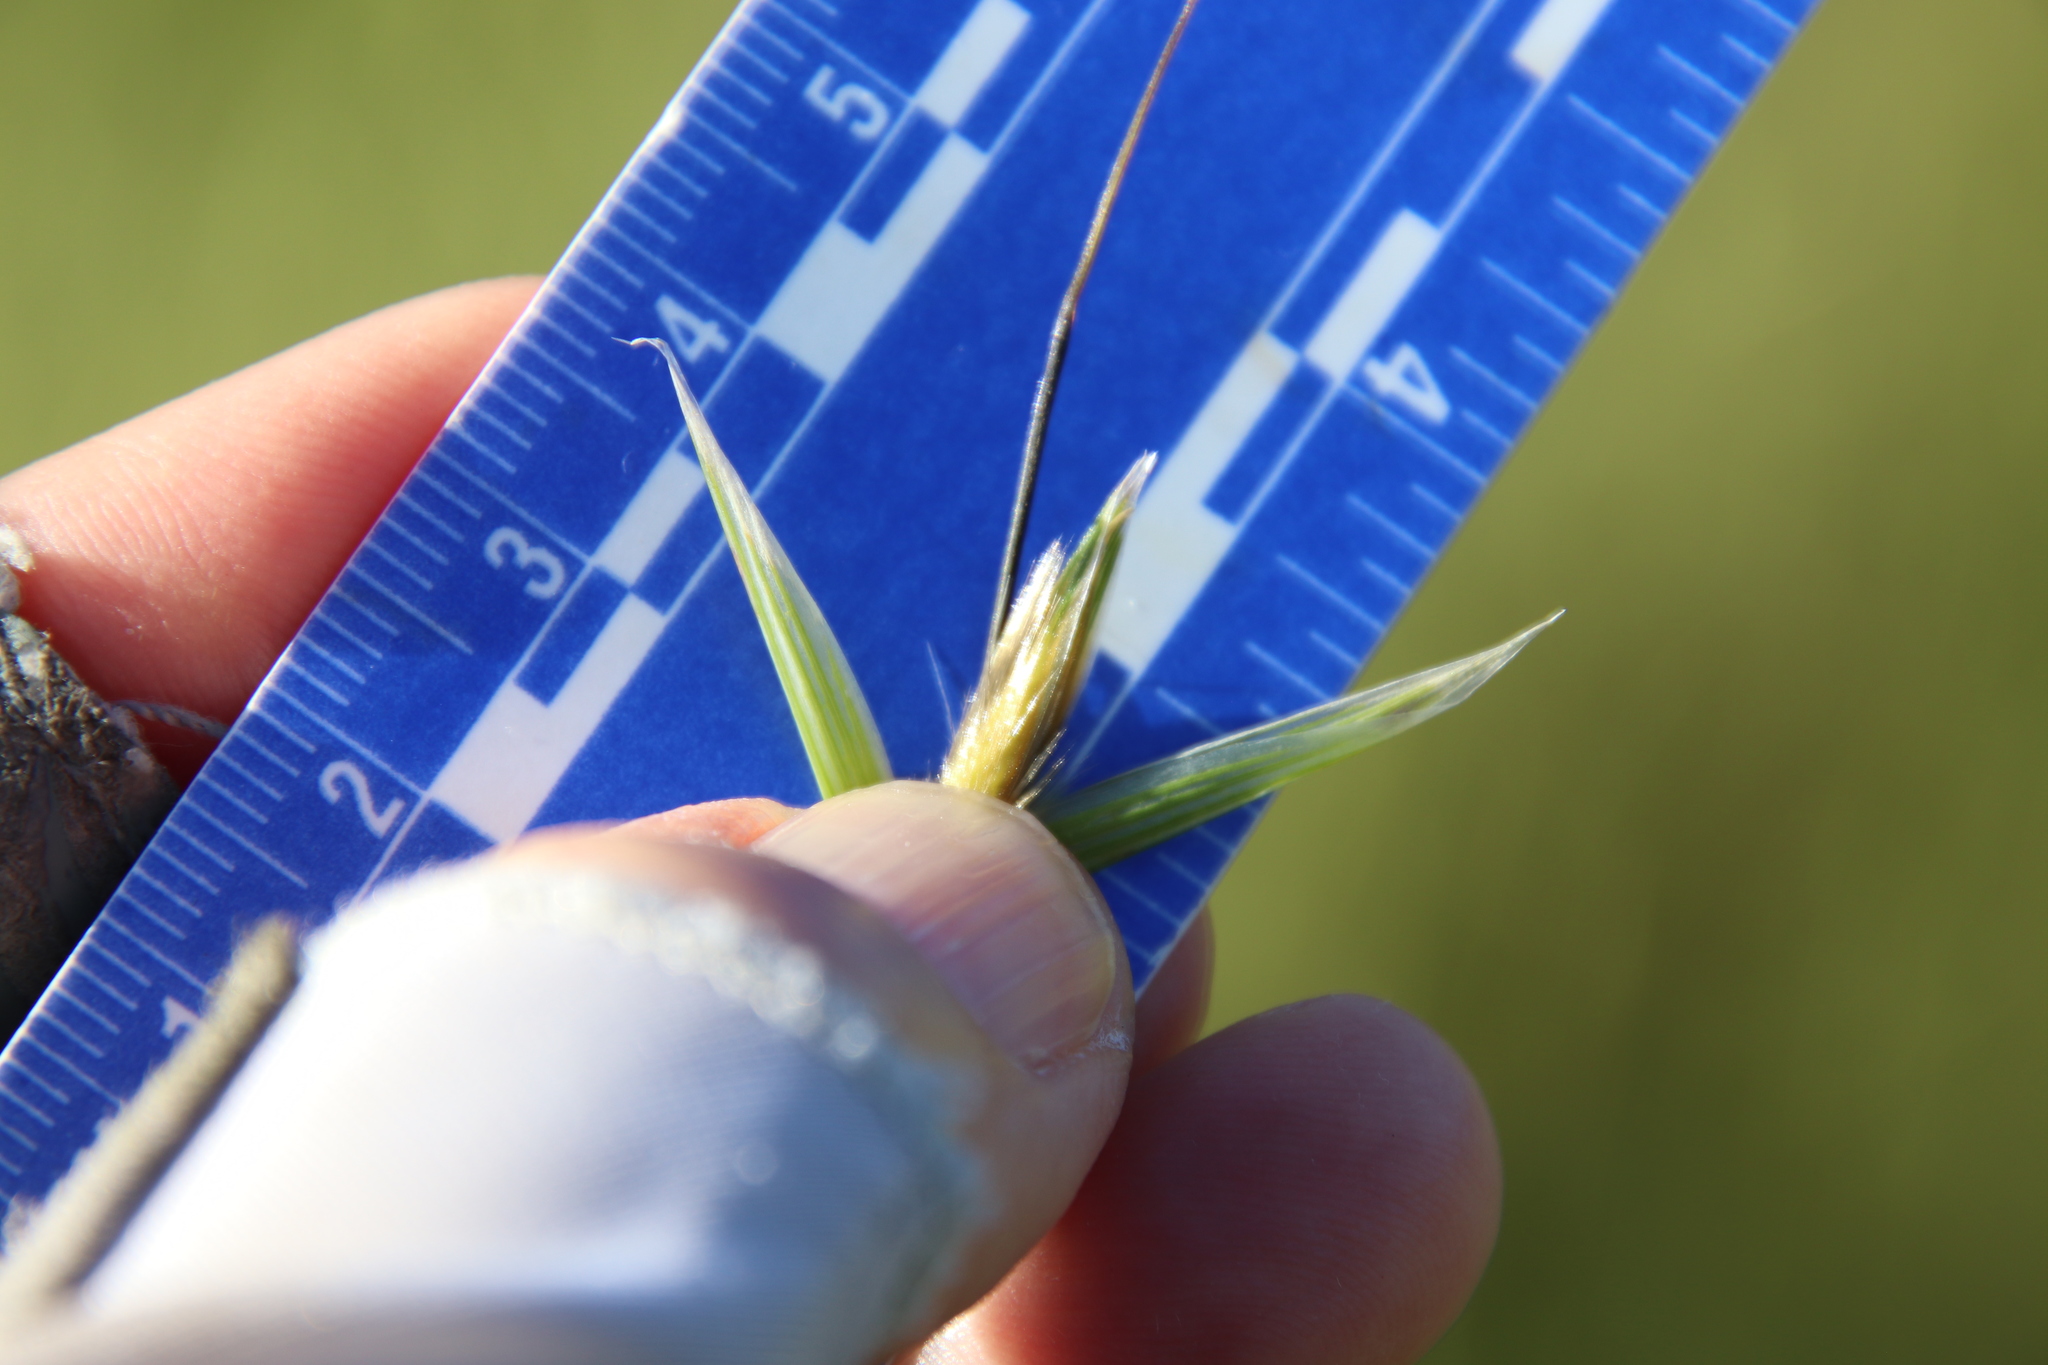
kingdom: Plantae
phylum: Tracheophyta
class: Liliopsida
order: Poales
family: Poaceae
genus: Avena
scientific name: Avena fatua
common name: Wild oat
